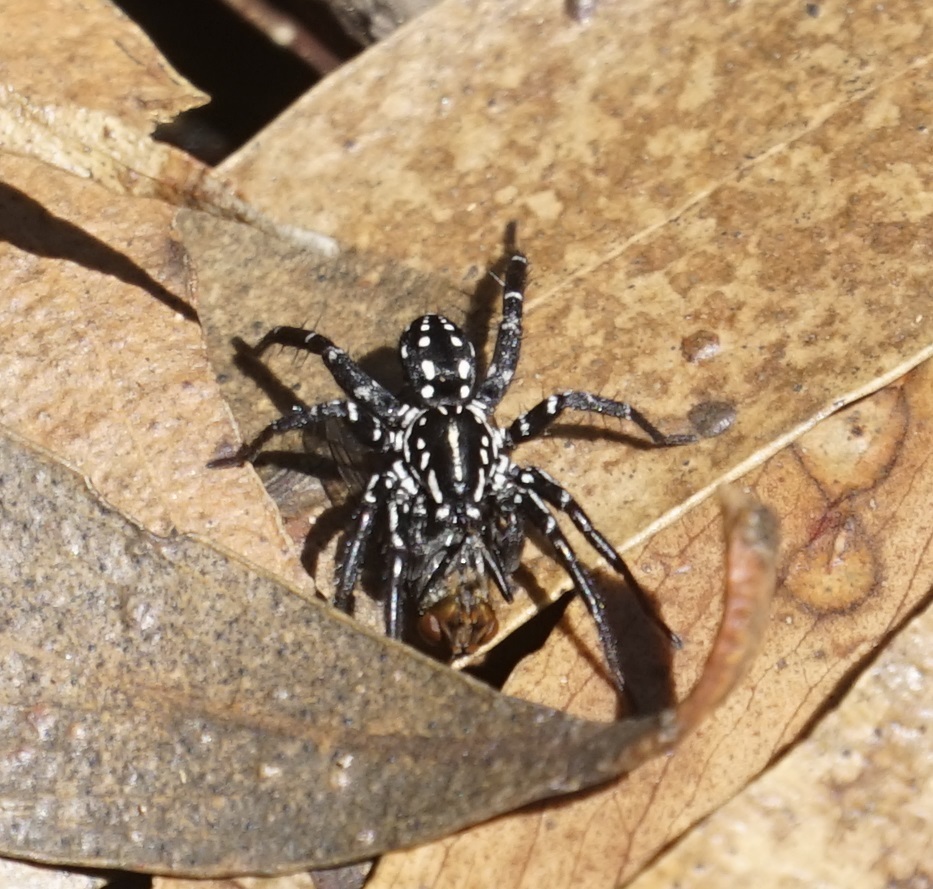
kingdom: Animalia
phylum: Arthropoda
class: Arachnida
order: Araneae
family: Corinnidae
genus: Nyssus
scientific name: Nyssus albopunctatus
